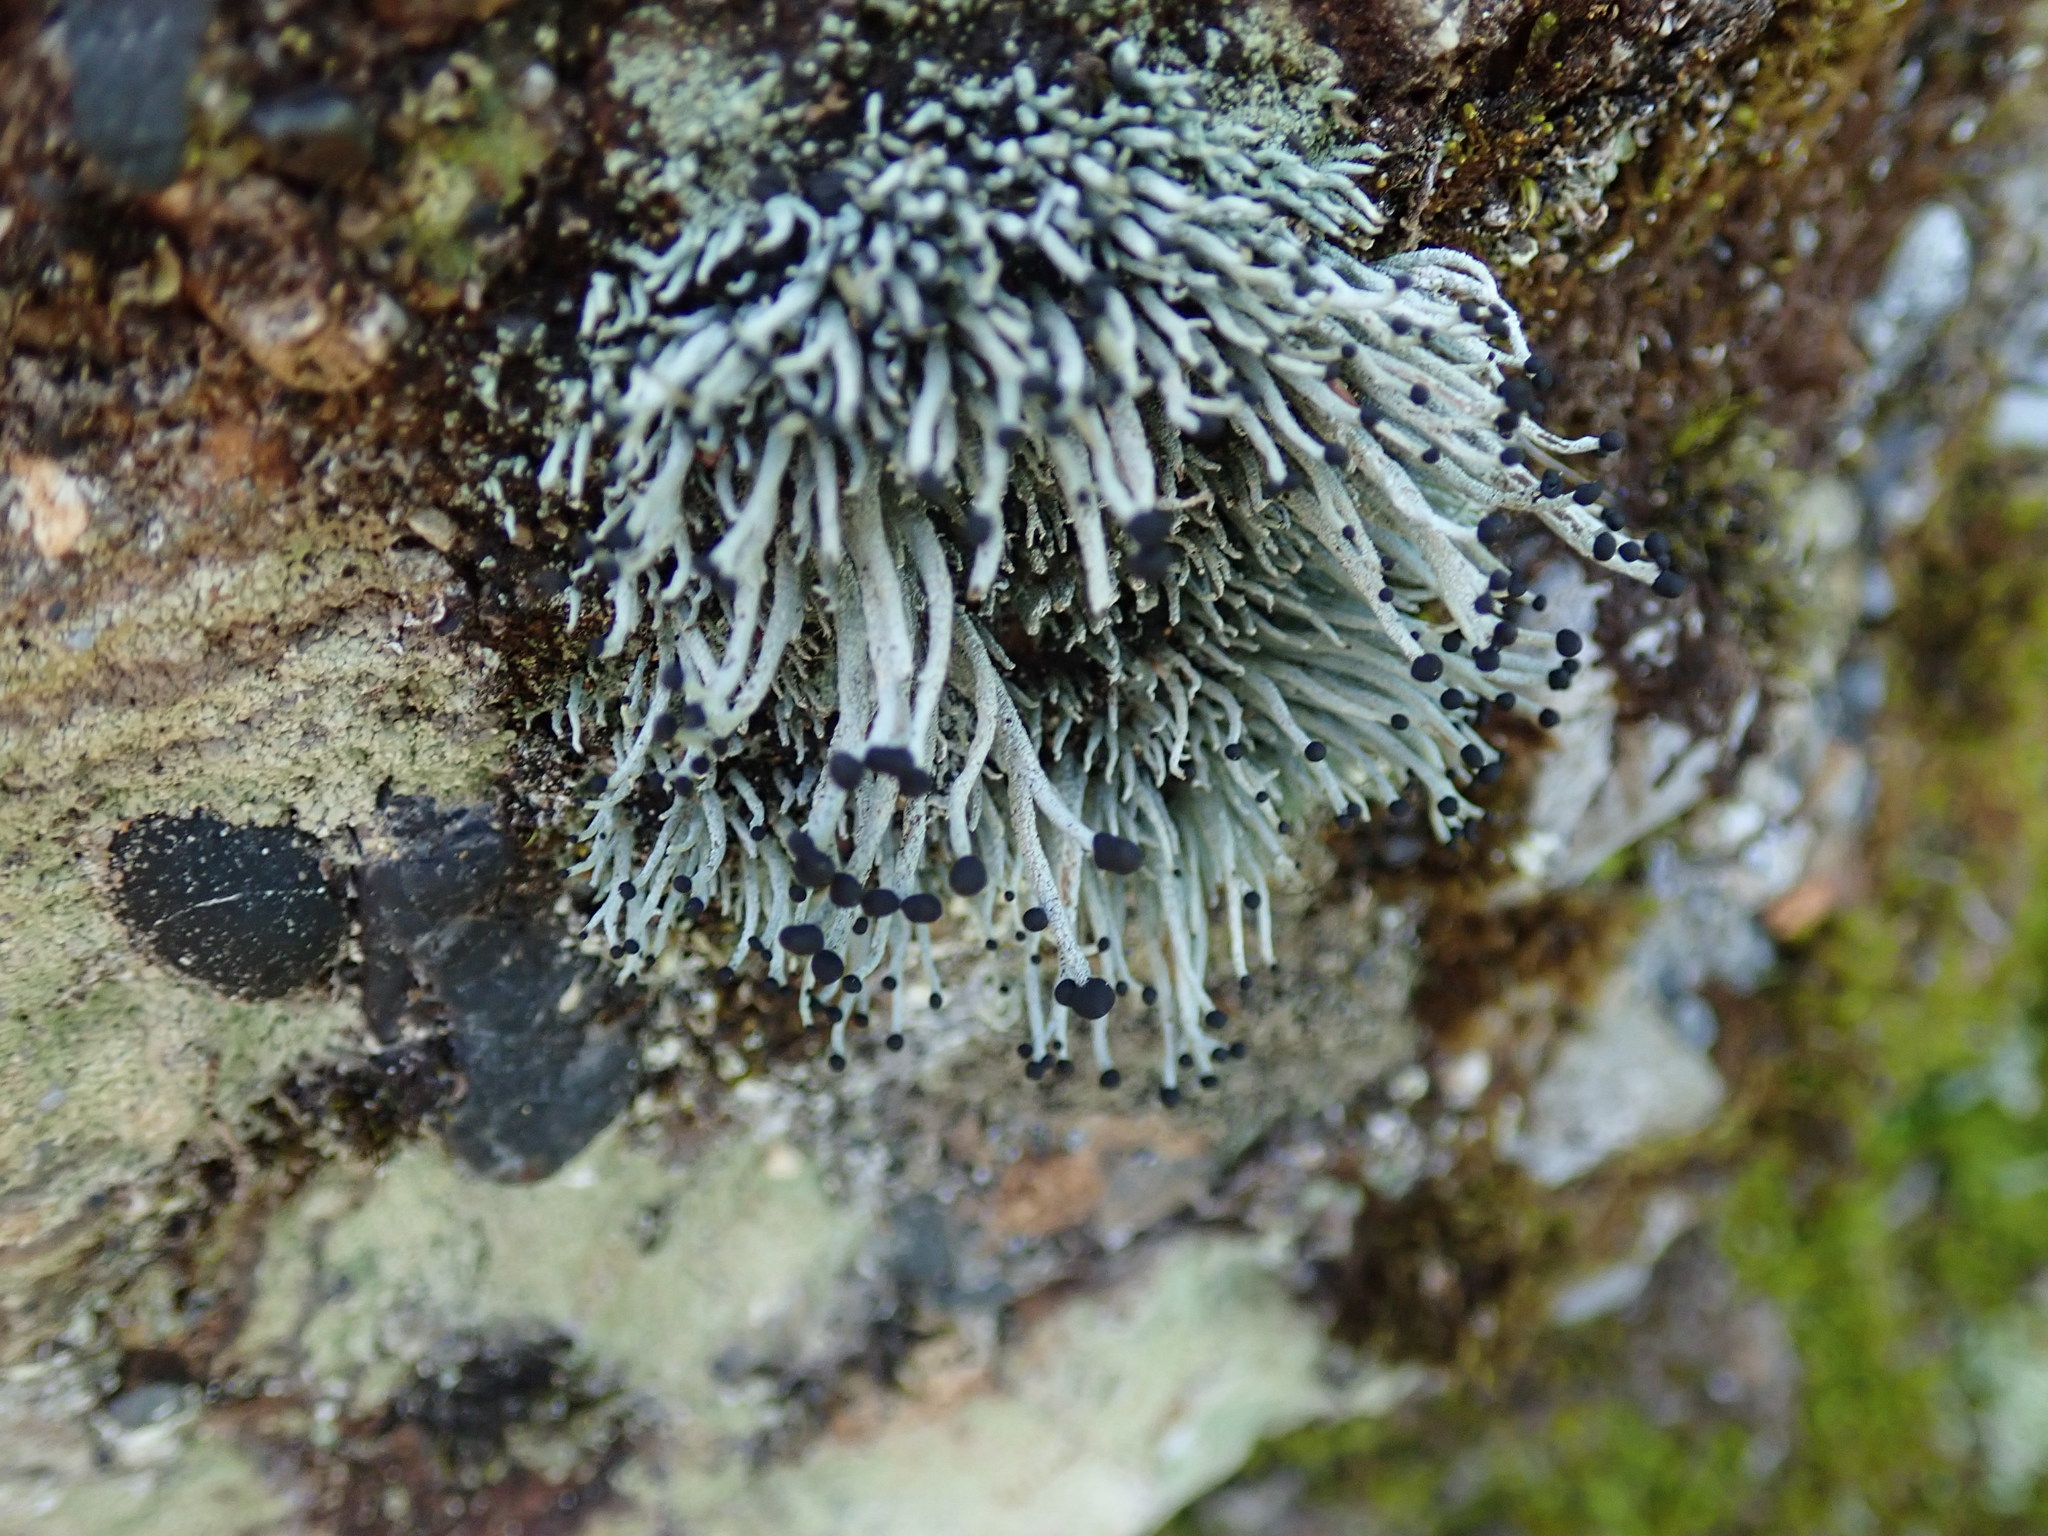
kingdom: Fungi
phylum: Ascomycota
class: Lecanoromycetes
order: Lecanorales
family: Cladoniaceae
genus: Pilophorus
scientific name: Pilophorus acicularis
